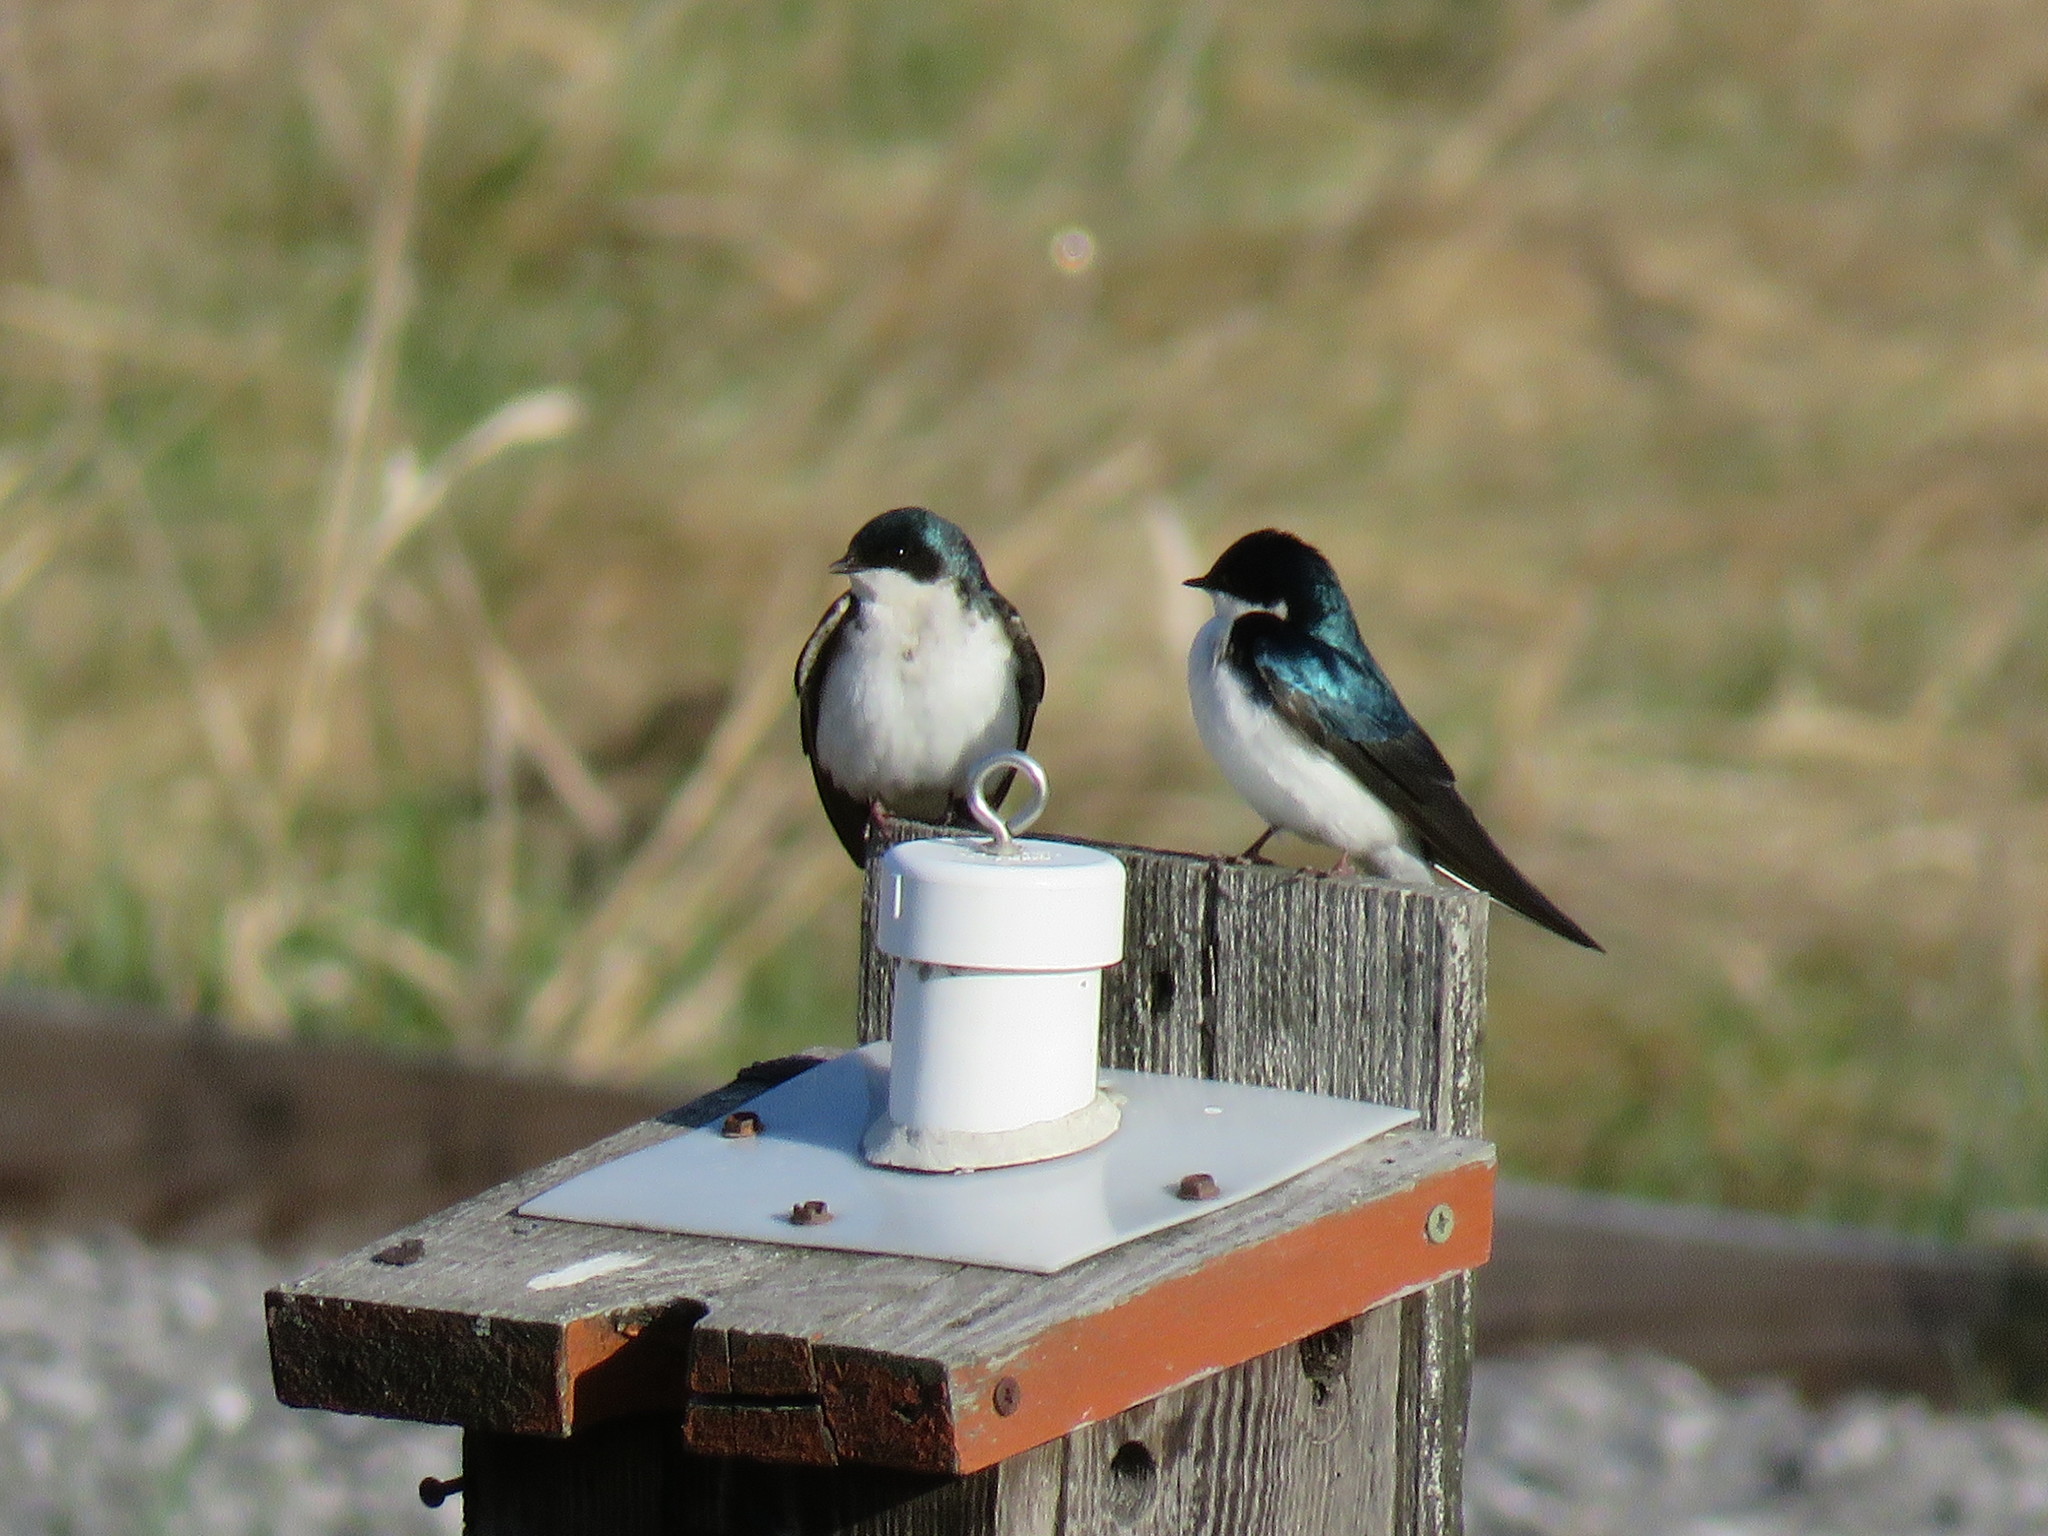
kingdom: Animalia
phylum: Chordata
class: Aves
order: Passeriformes
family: Hirundinidae
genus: Tachycineta
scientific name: Tachycineta bicolor
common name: Tree swallow
